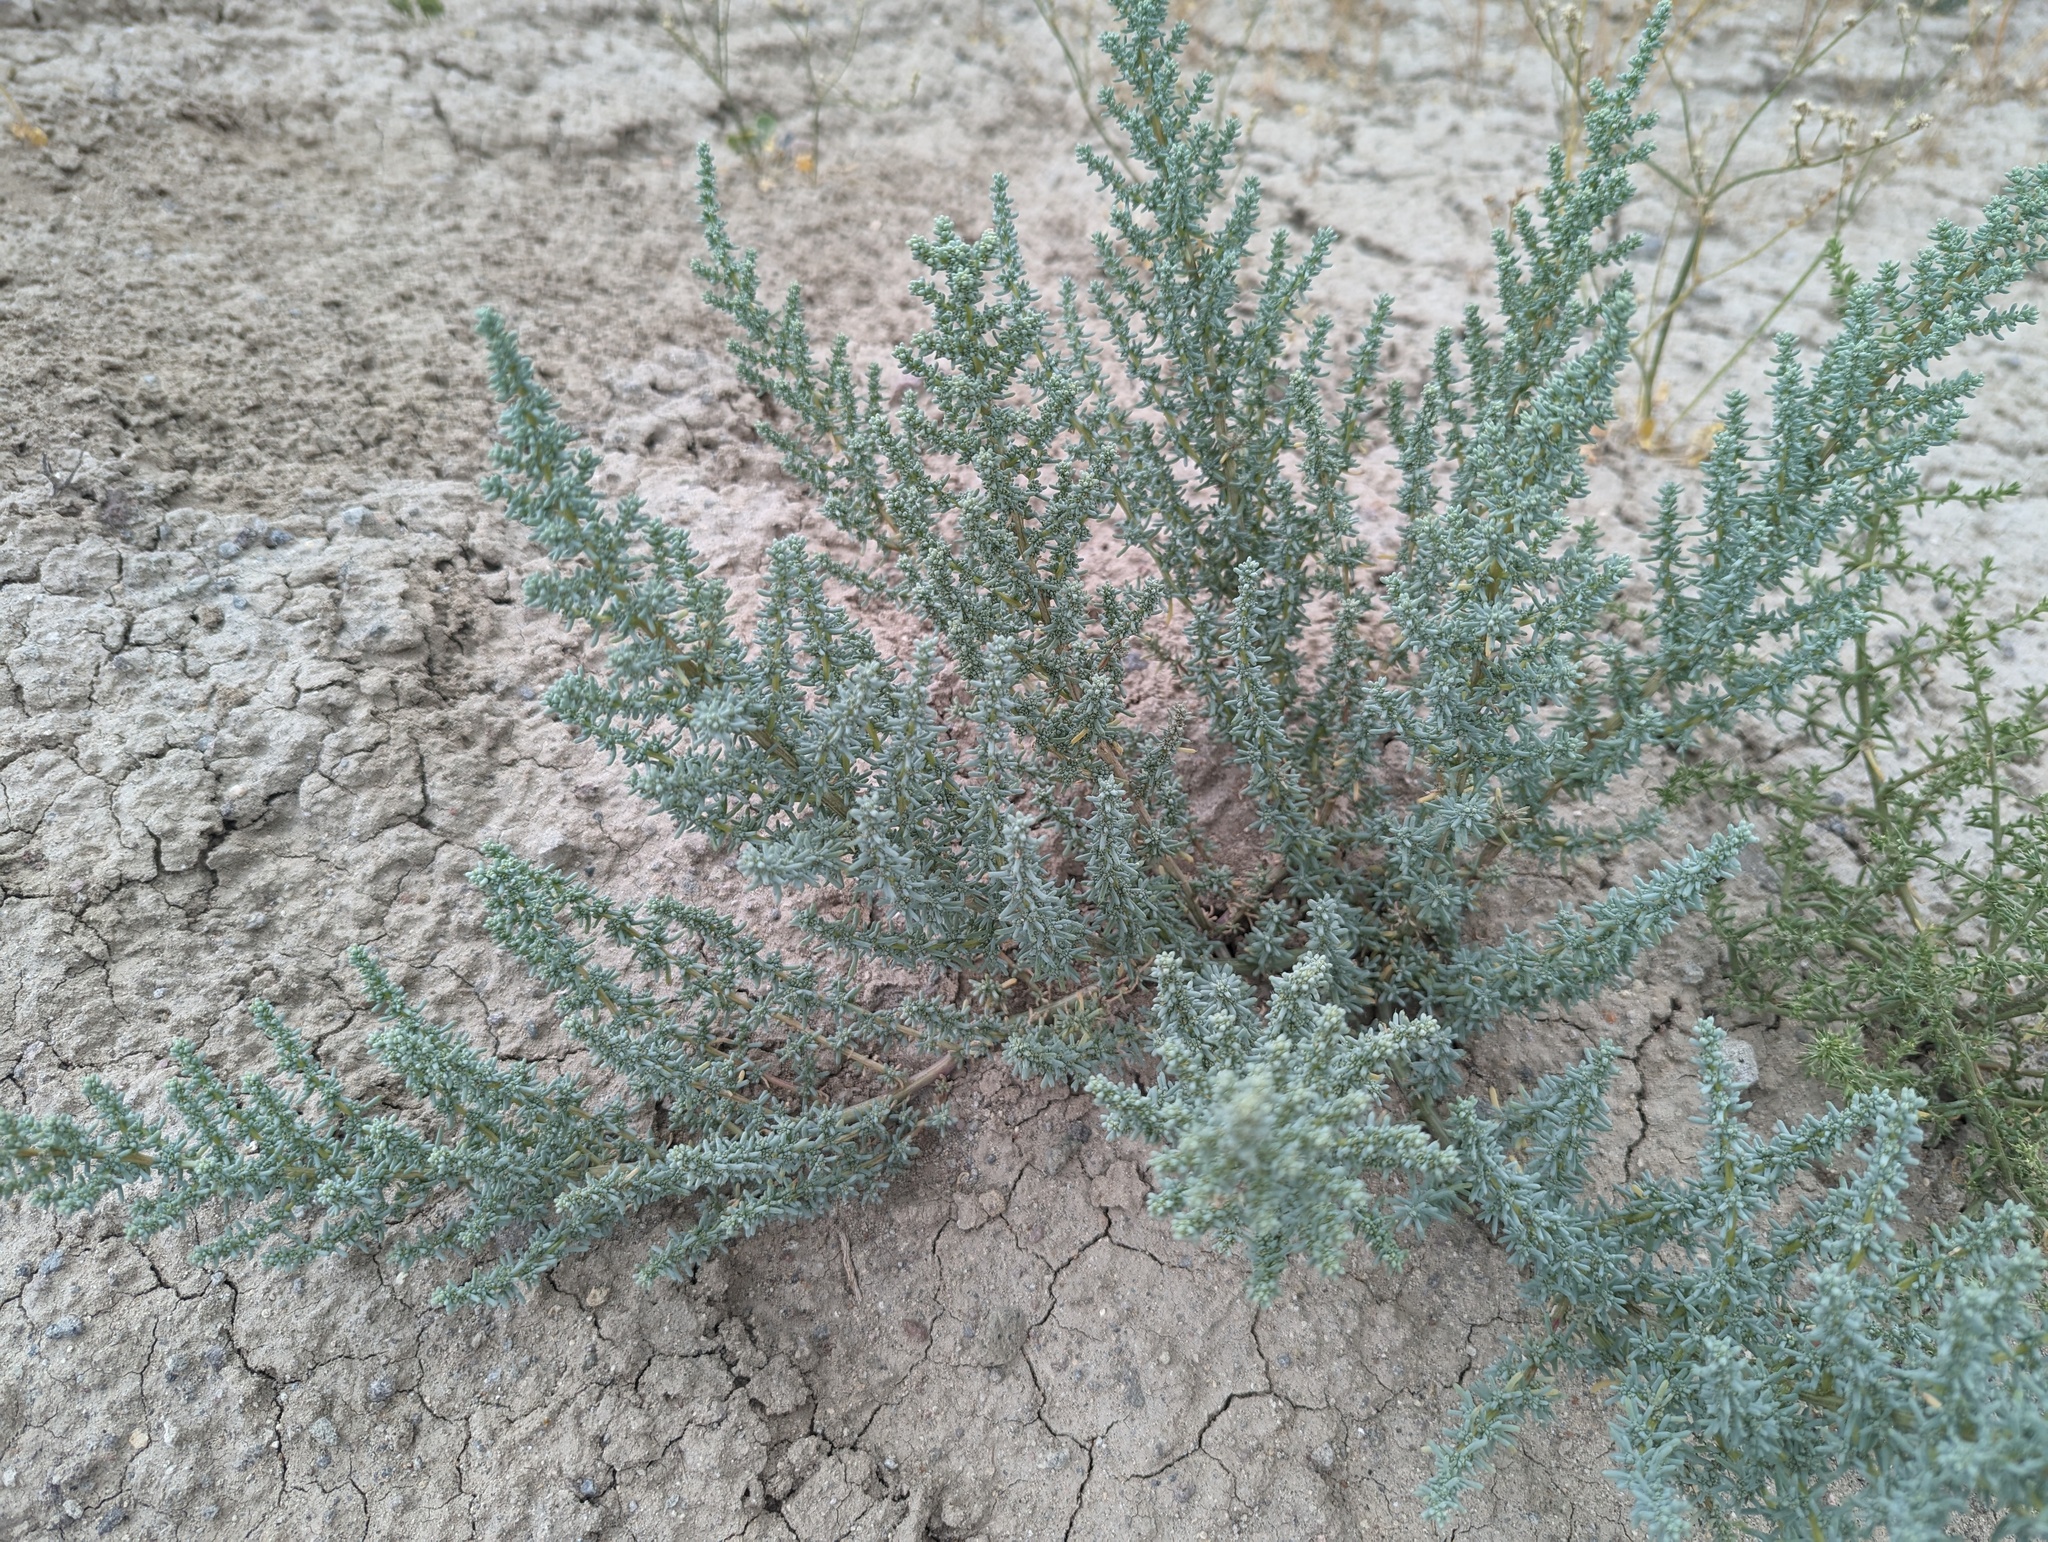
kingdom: Plantae
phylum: Tracheophyta
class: Magnoliopsida
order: Caryophyllales
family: Amaranthaceae
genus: Halogeton
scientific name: Halogeton glomeratus
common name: Saltlover
